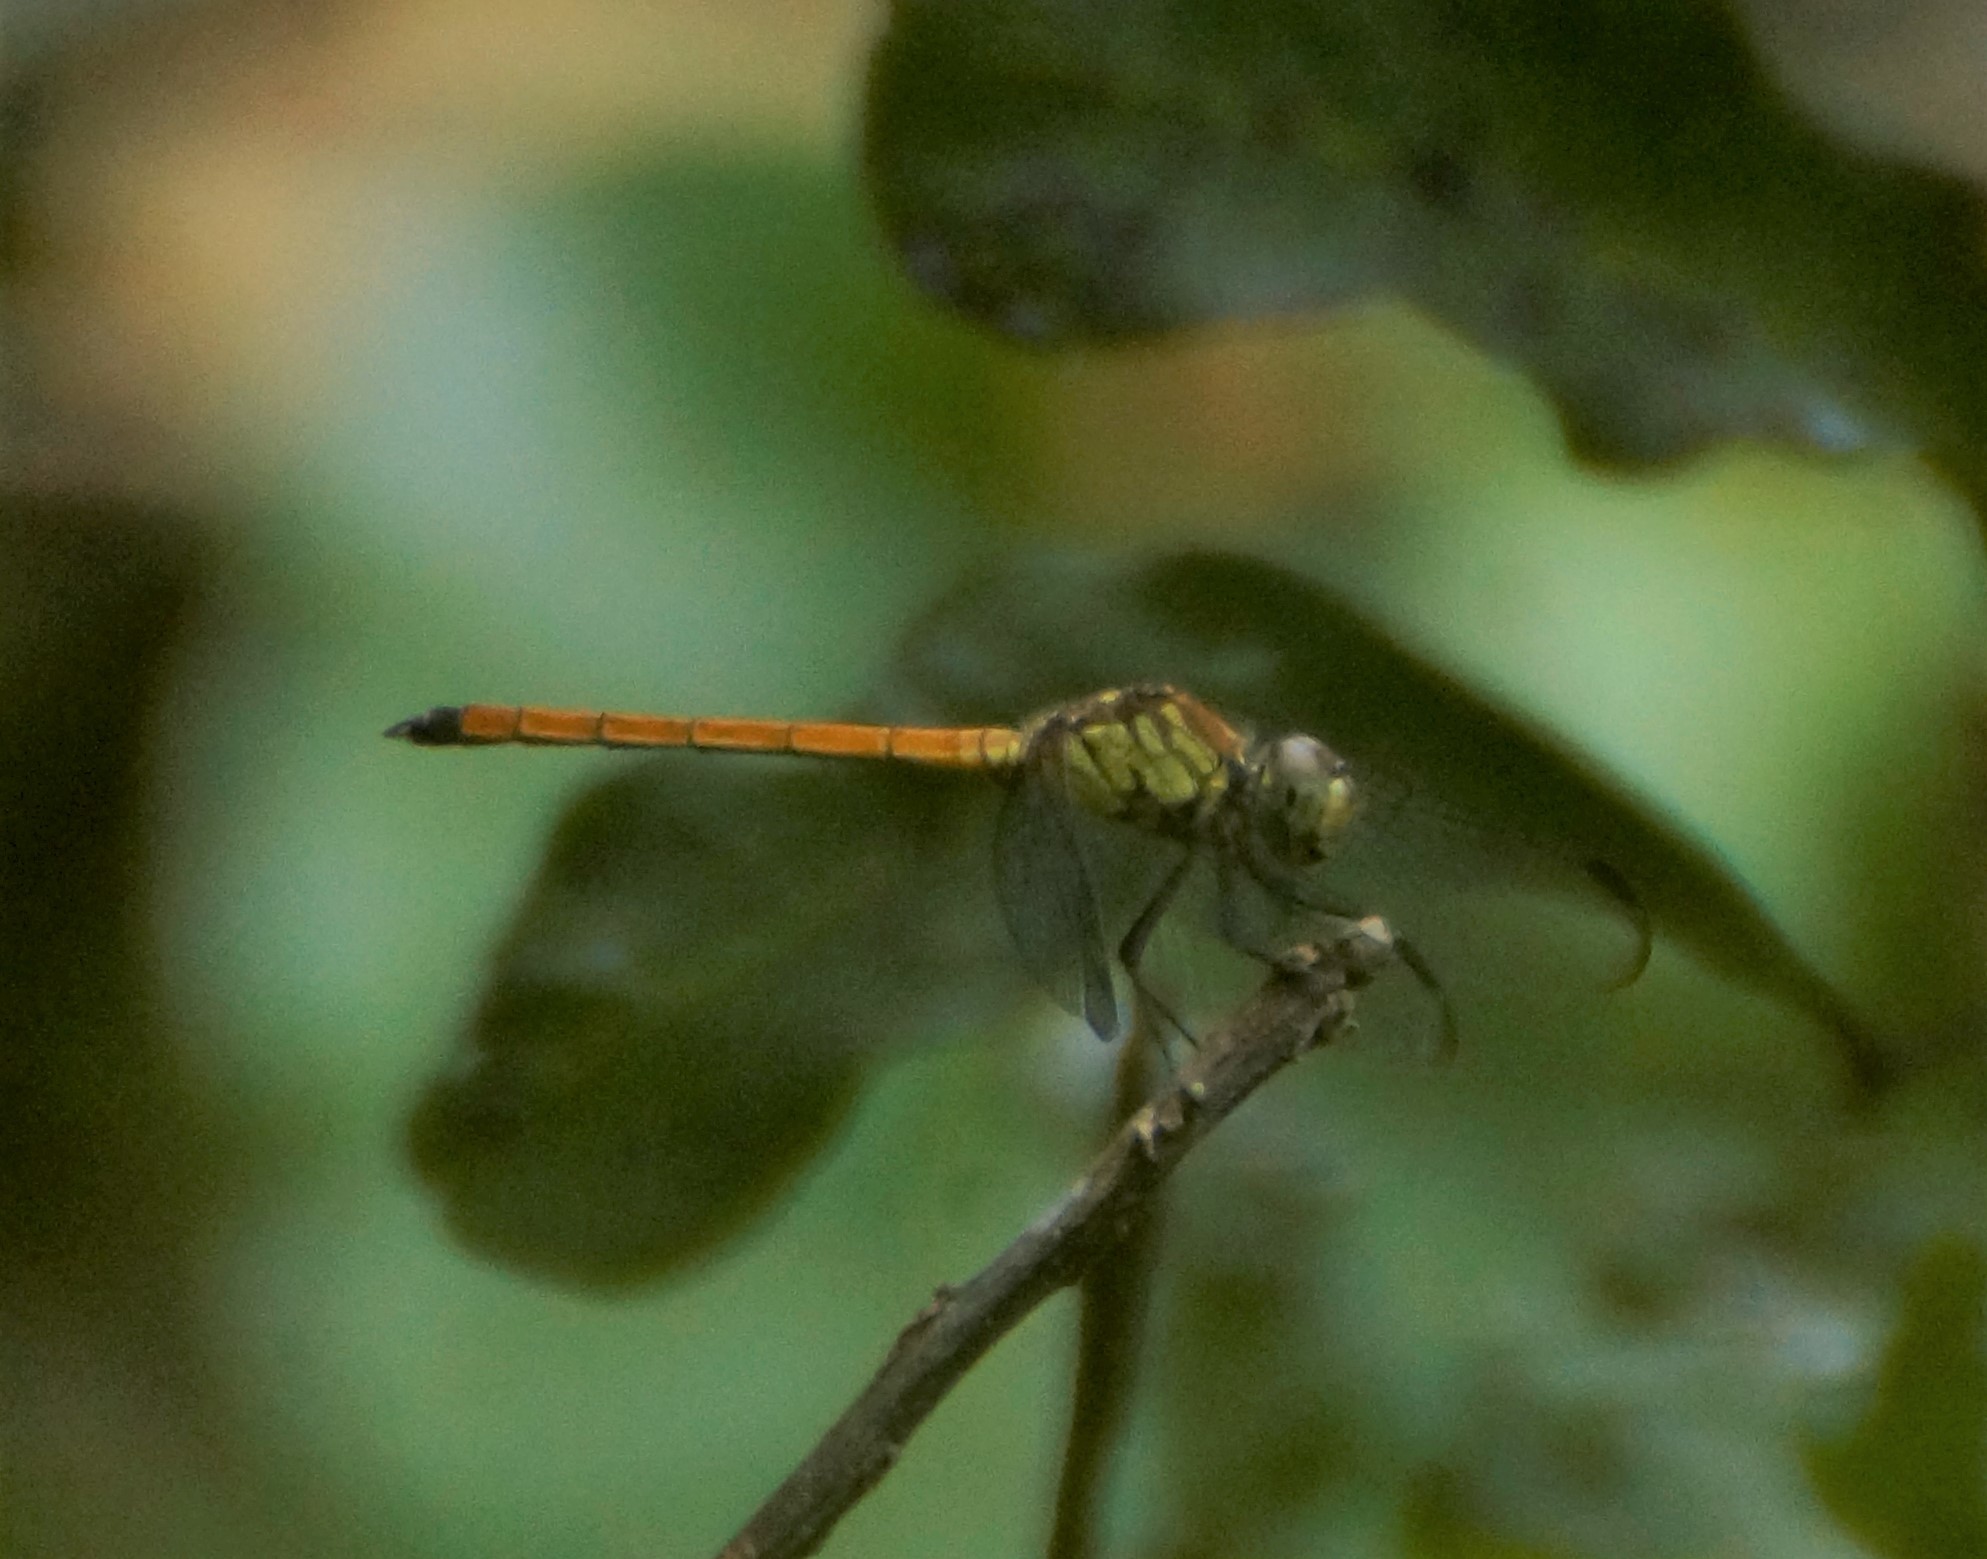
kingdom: Animalia
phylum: Arthropoda
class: Insecta
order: Odonata
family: Libellulidae
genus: Lathrecista
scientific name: Lathrecista asiatica
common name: Scarlet grenadier
